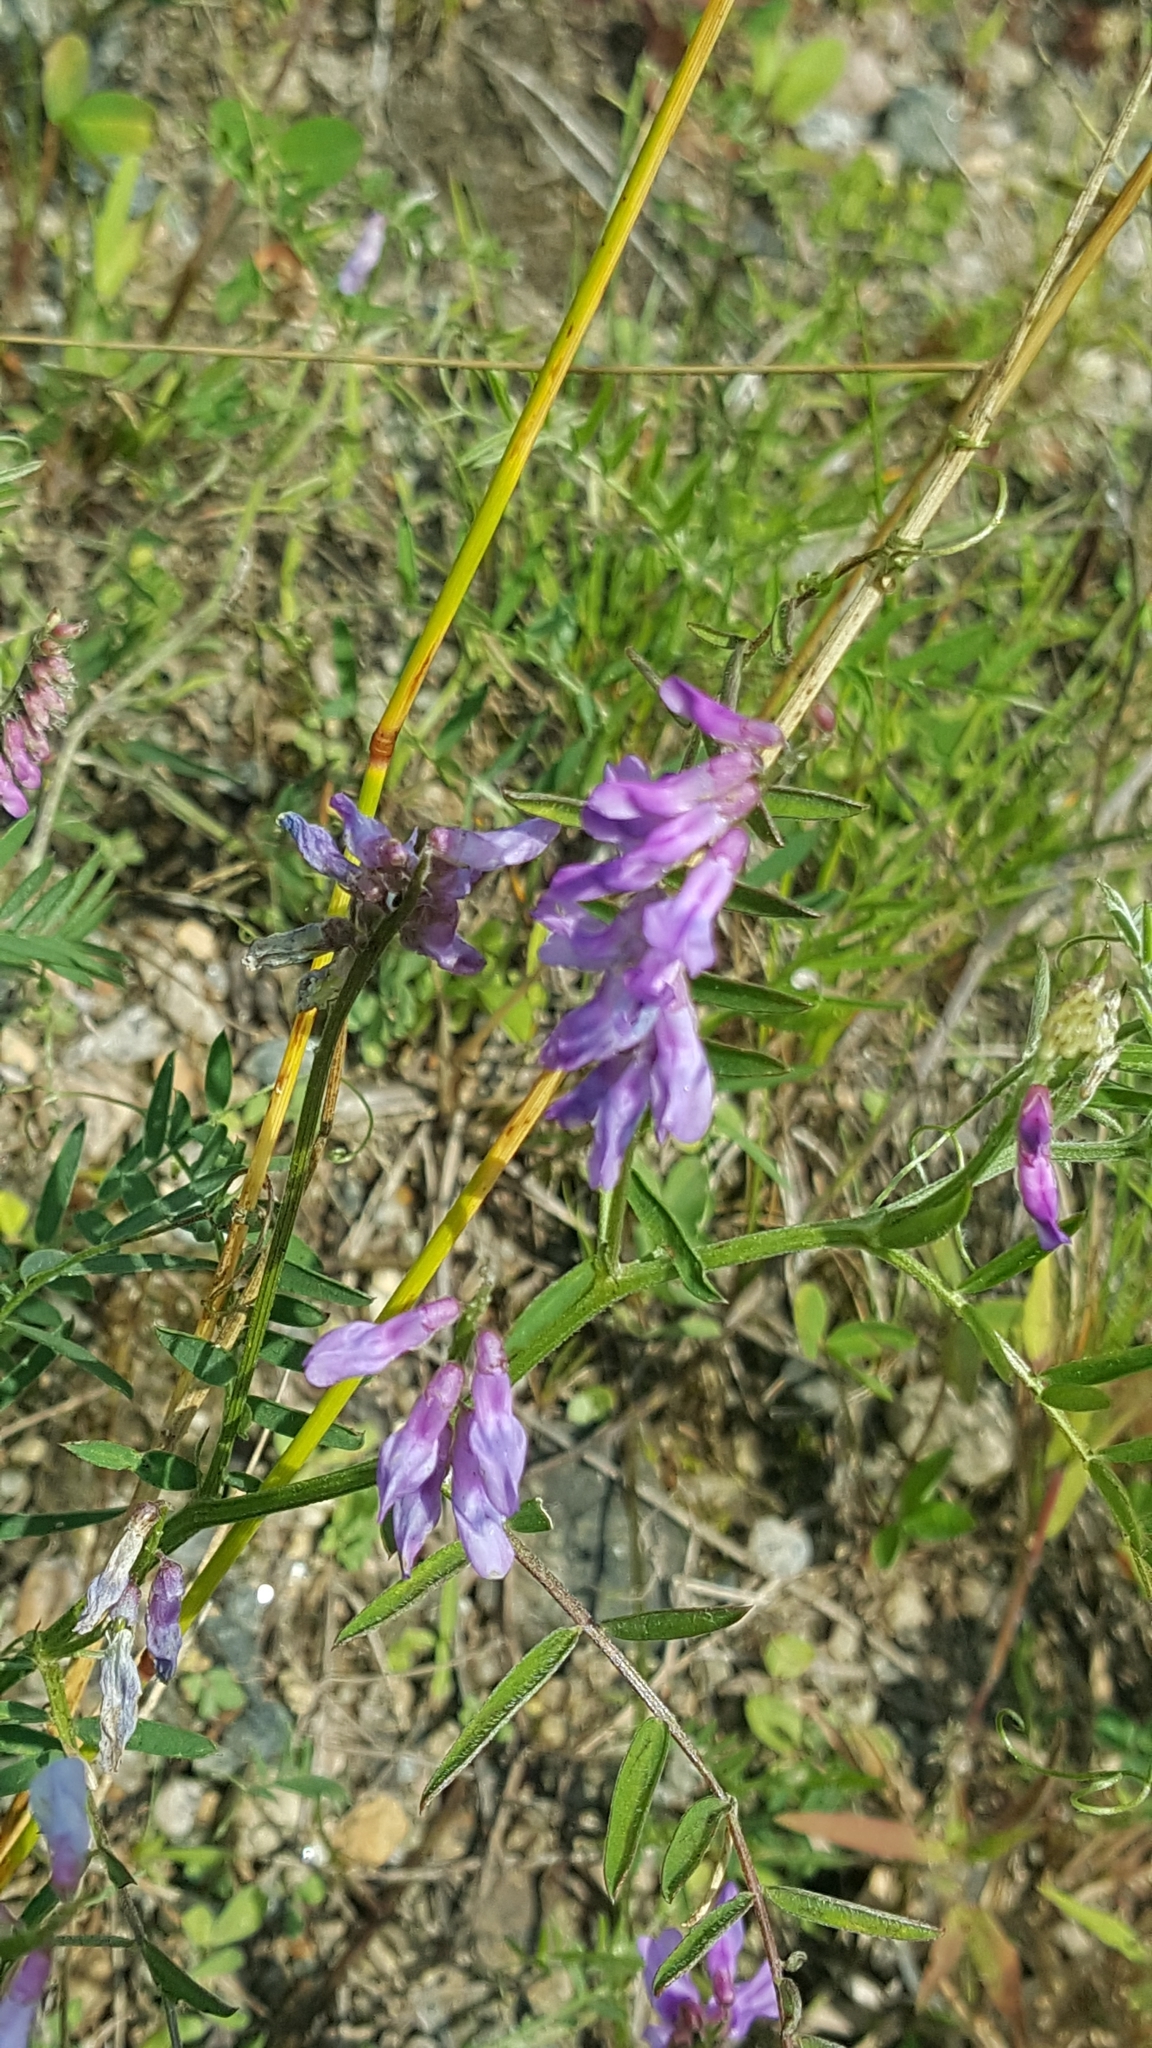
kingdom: Plantae
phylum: Tracheophyta
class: Magnoliopsida
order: Fabales
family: Fabaceae
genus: Vicia
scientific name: Vicia cracca
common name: Bird vetch
